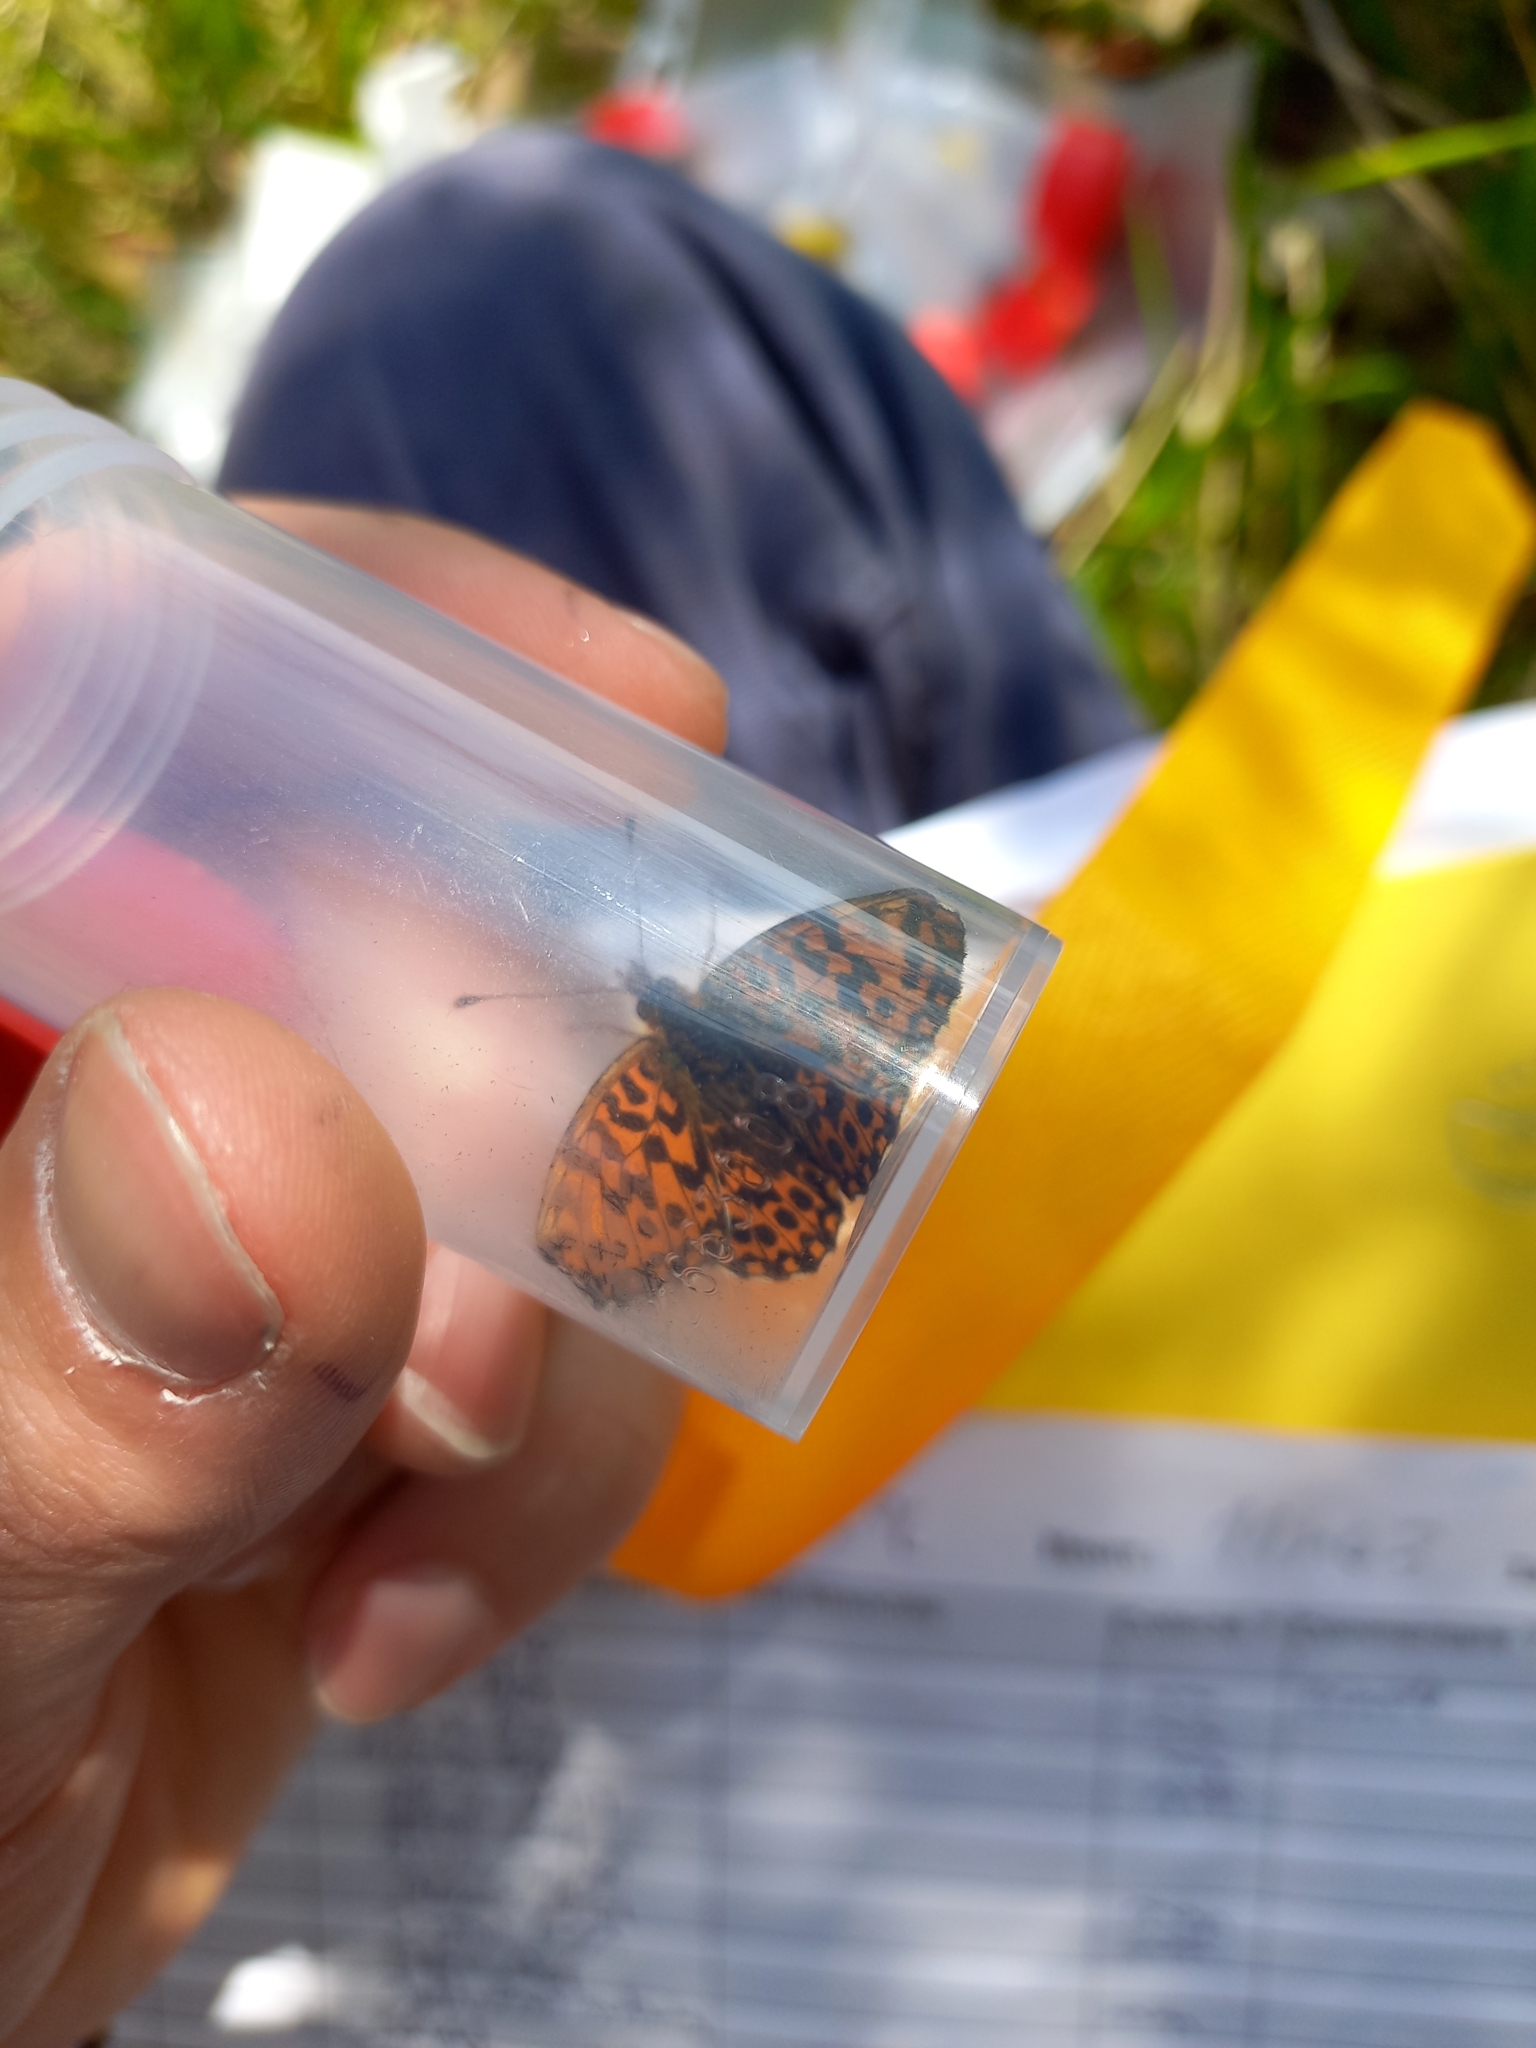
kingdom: Animalia
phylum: Arthropoda
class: Insecta
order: Lepidoptera
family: Nymphalidae
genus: Boloria
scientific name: Boloria dia
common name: Weaver's fritillary
